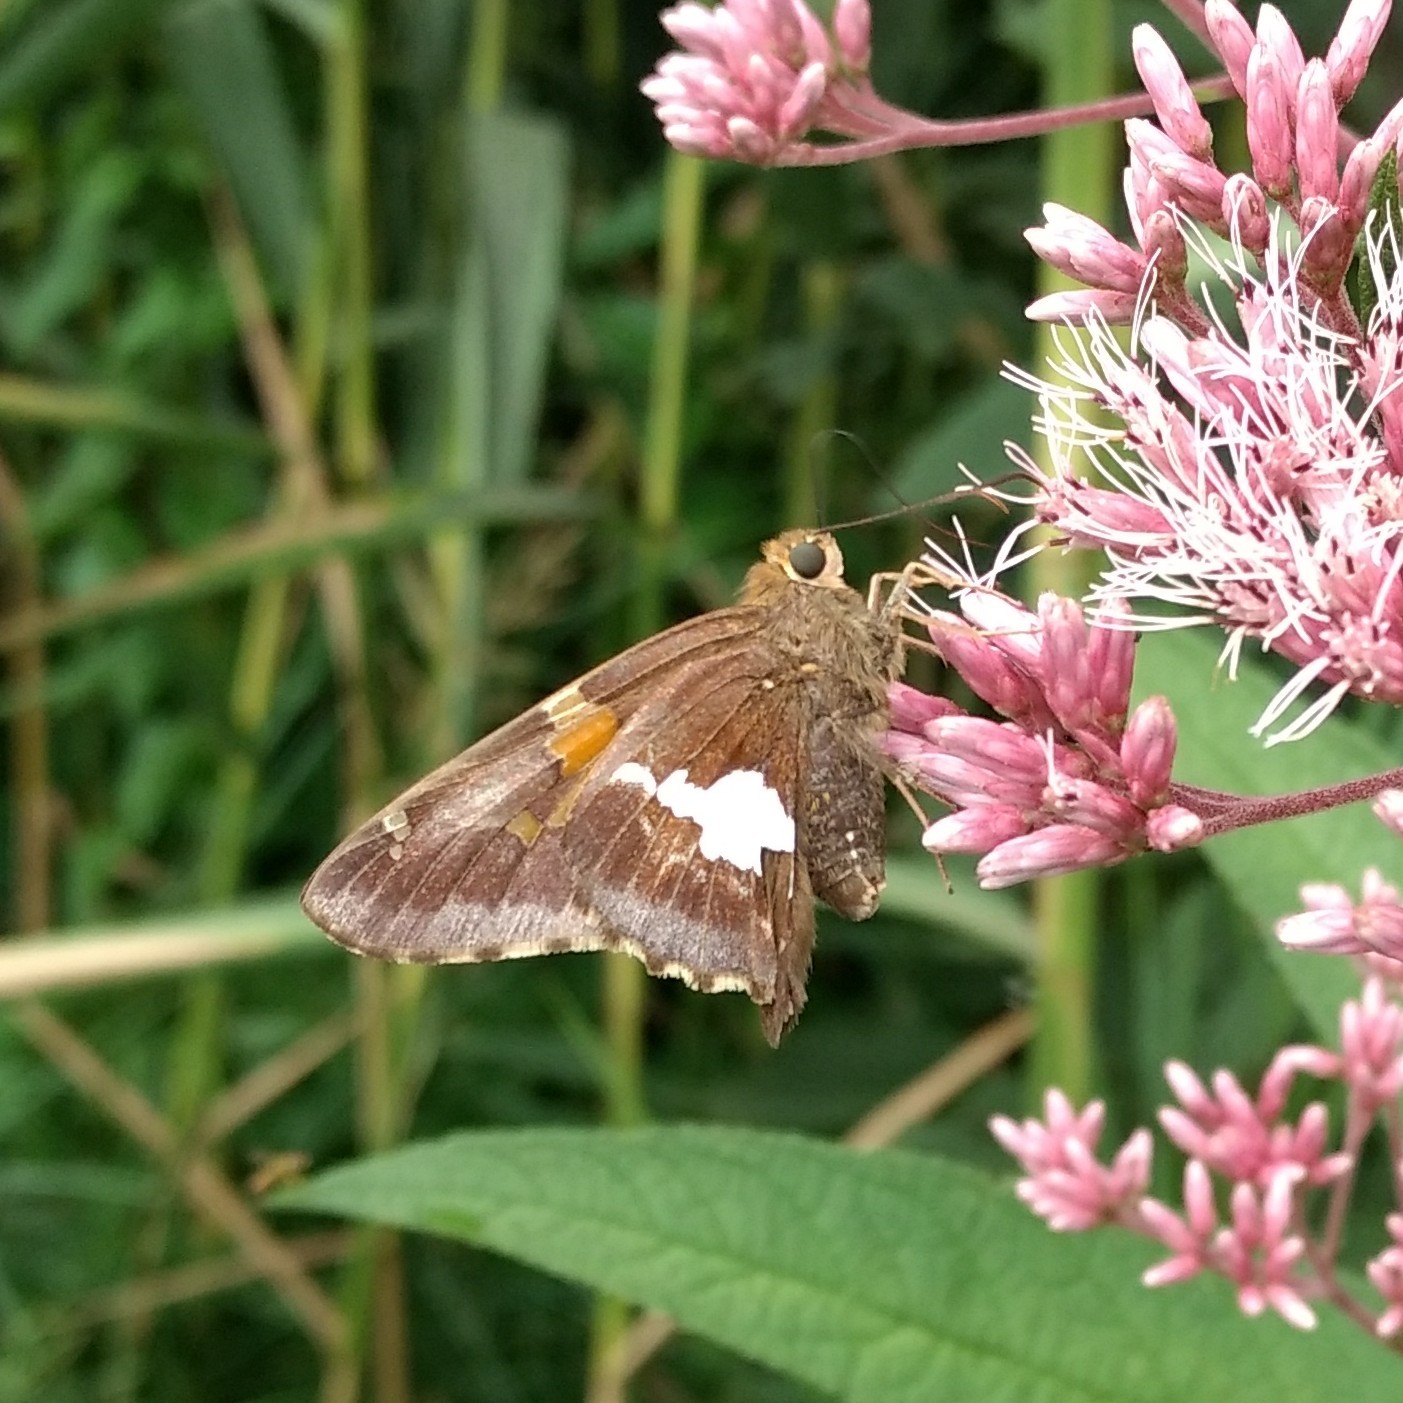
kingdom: Animalia
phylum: Arthropoda
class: Insecta
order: Lepidoptera
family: Hesperiidae
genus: Epargyreus
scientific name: Epargyreus clarus
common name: Silver-spotted skipper
